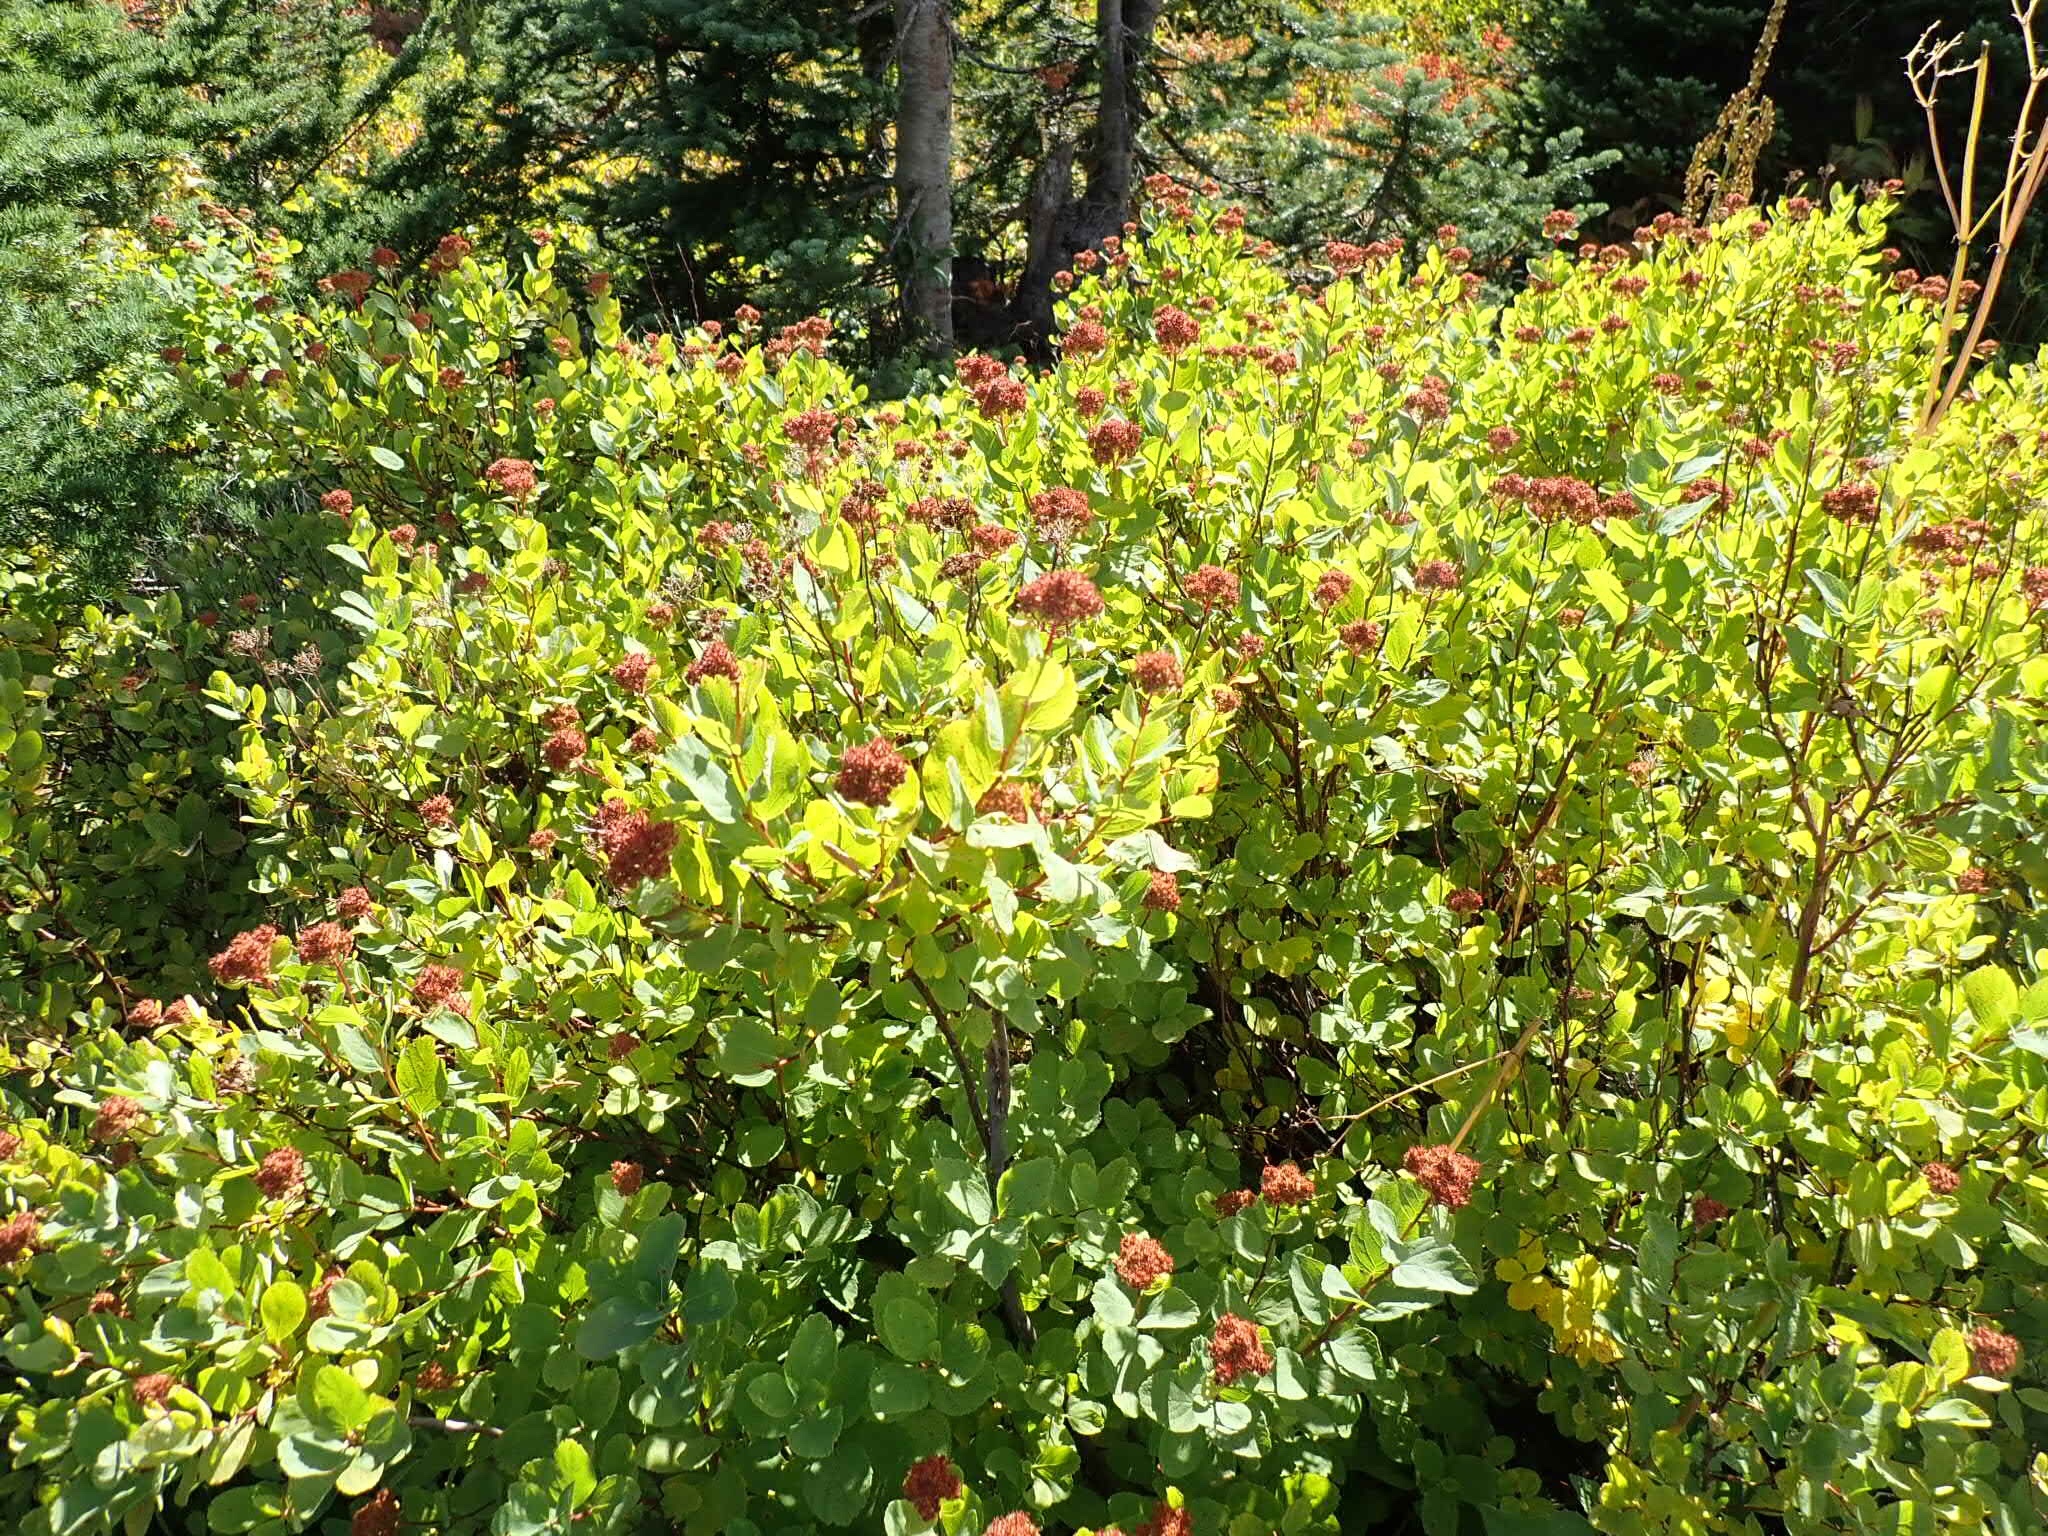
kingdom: Plantae
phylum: Tracheophyta
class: Magnoliopsida
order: Rosales
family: Rosaceae
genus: Spiraea
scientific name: Spiraea splendens
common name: Subalpine meadowsweet
